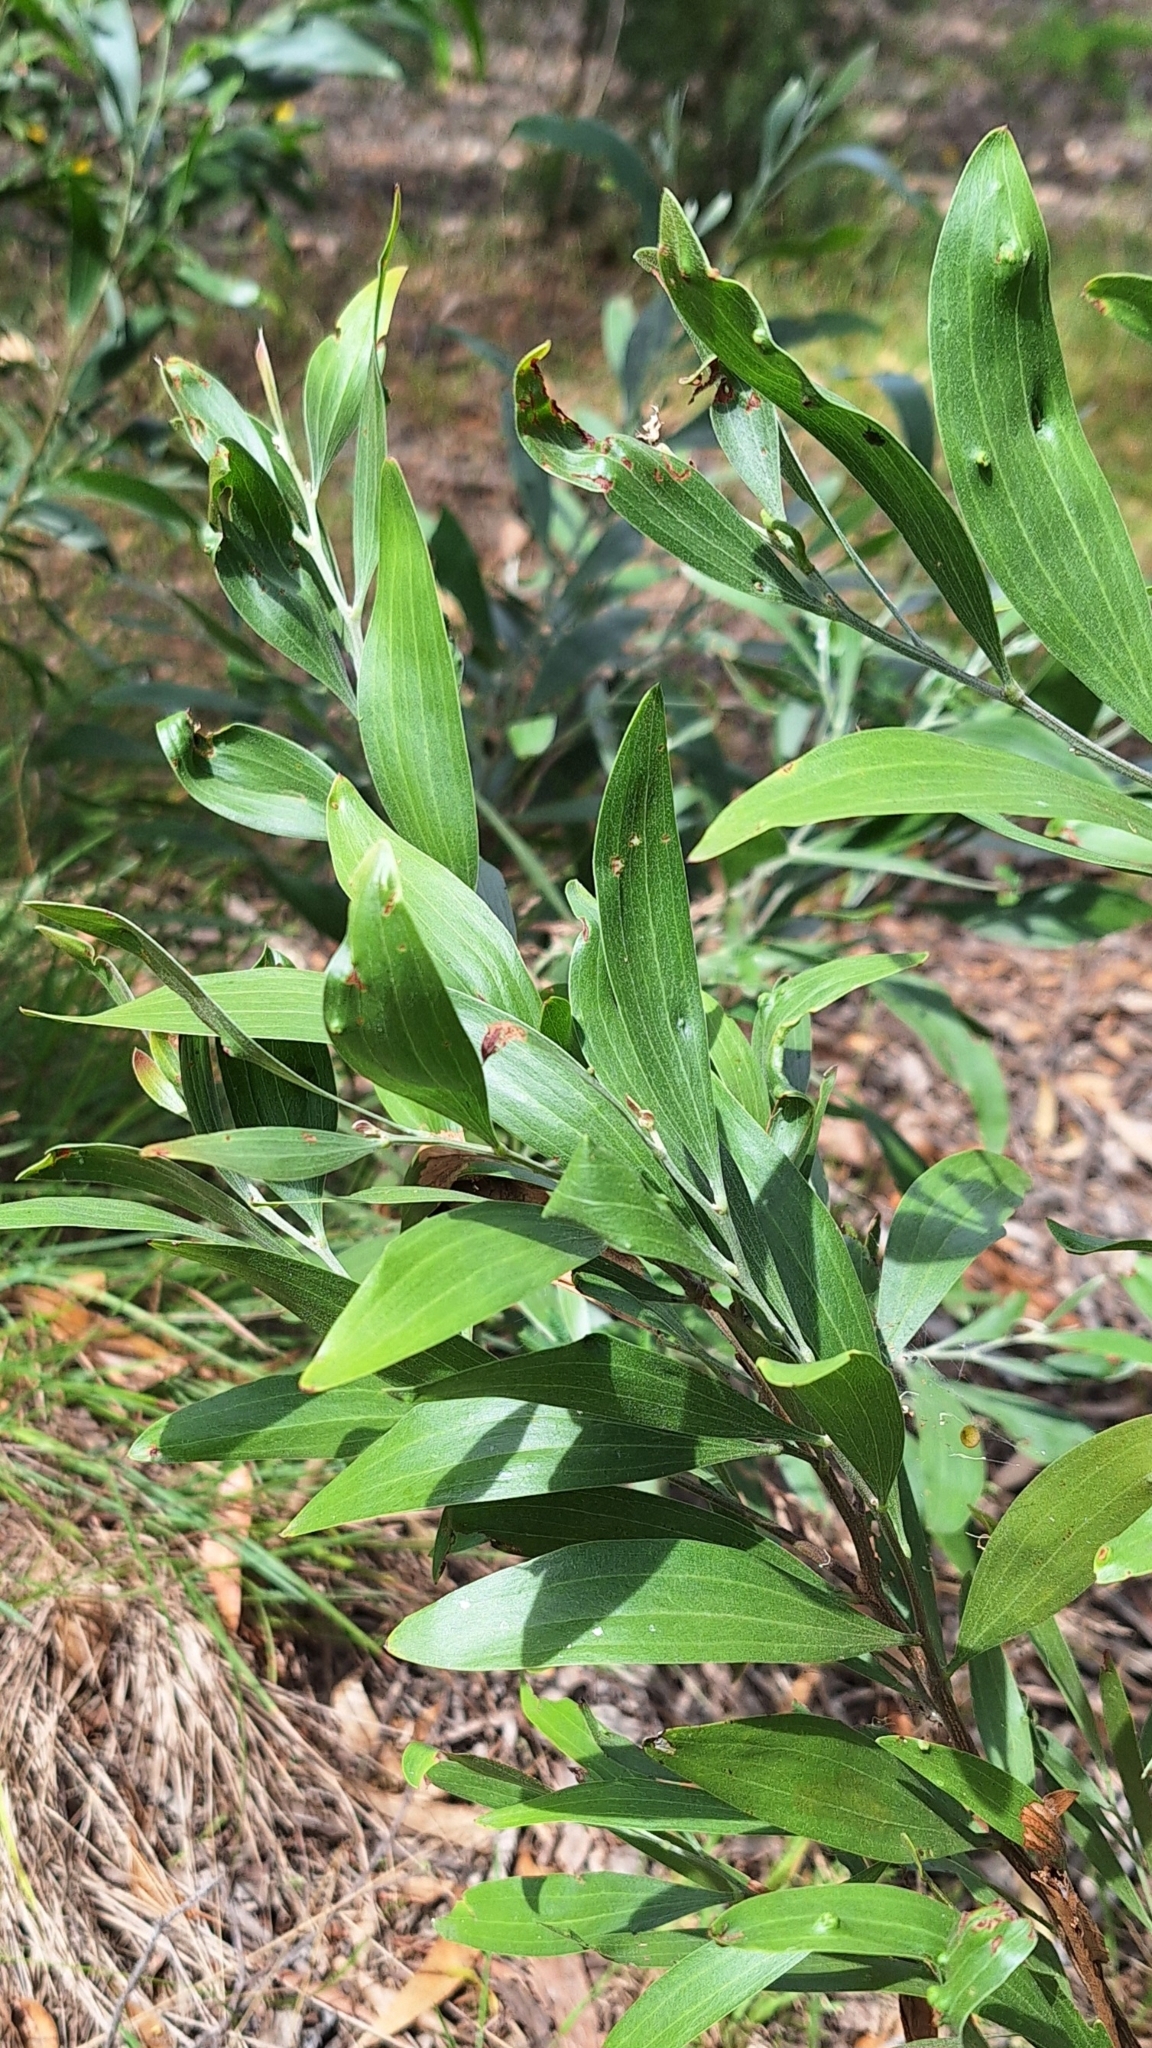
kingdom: Plantae
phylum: Tracheophyta
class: Magnoliopsida
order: Fabales
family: Fabaceae
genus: Acacia
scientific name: Acacia melanoxylon
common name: Blackwood
